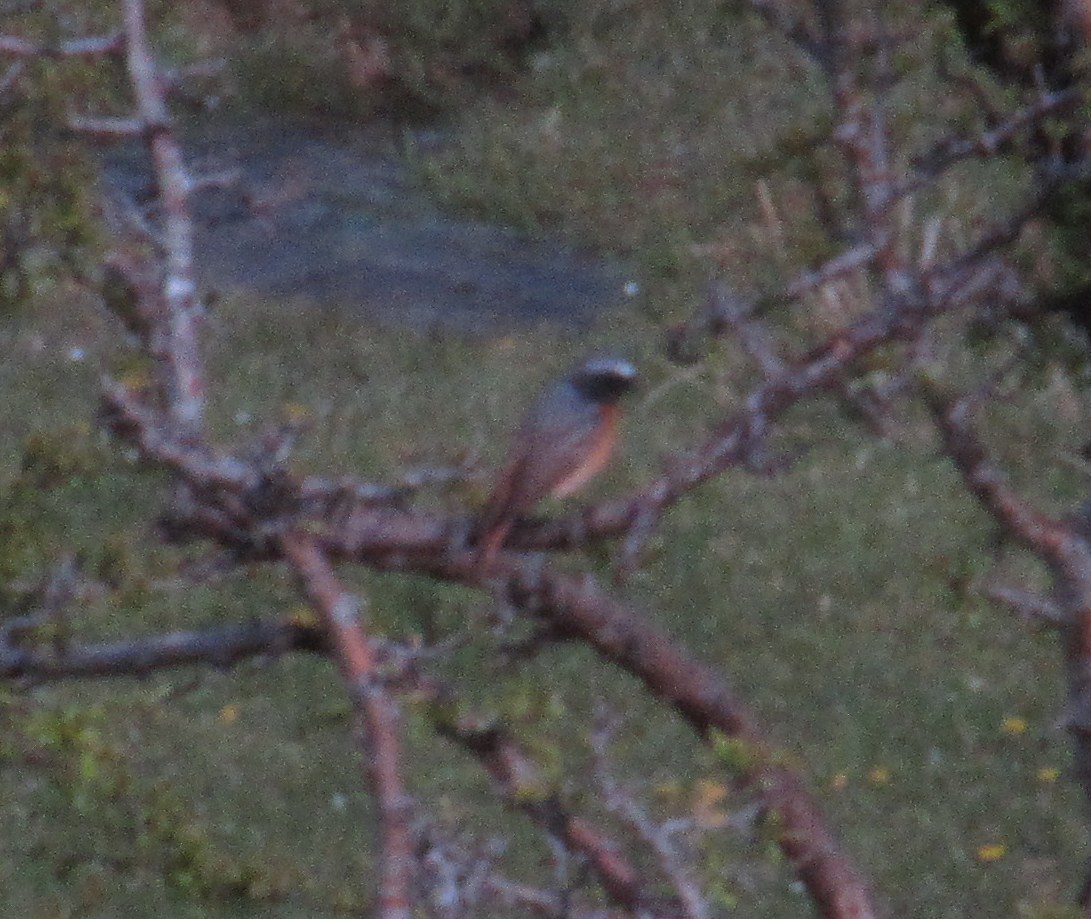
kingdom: Animalia
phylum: Chordata
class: Aves
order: Passeriformes
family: Muscicapidae
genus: Phoenicurus
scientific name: Phoenicurus phoenicurus
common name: Common redstart
